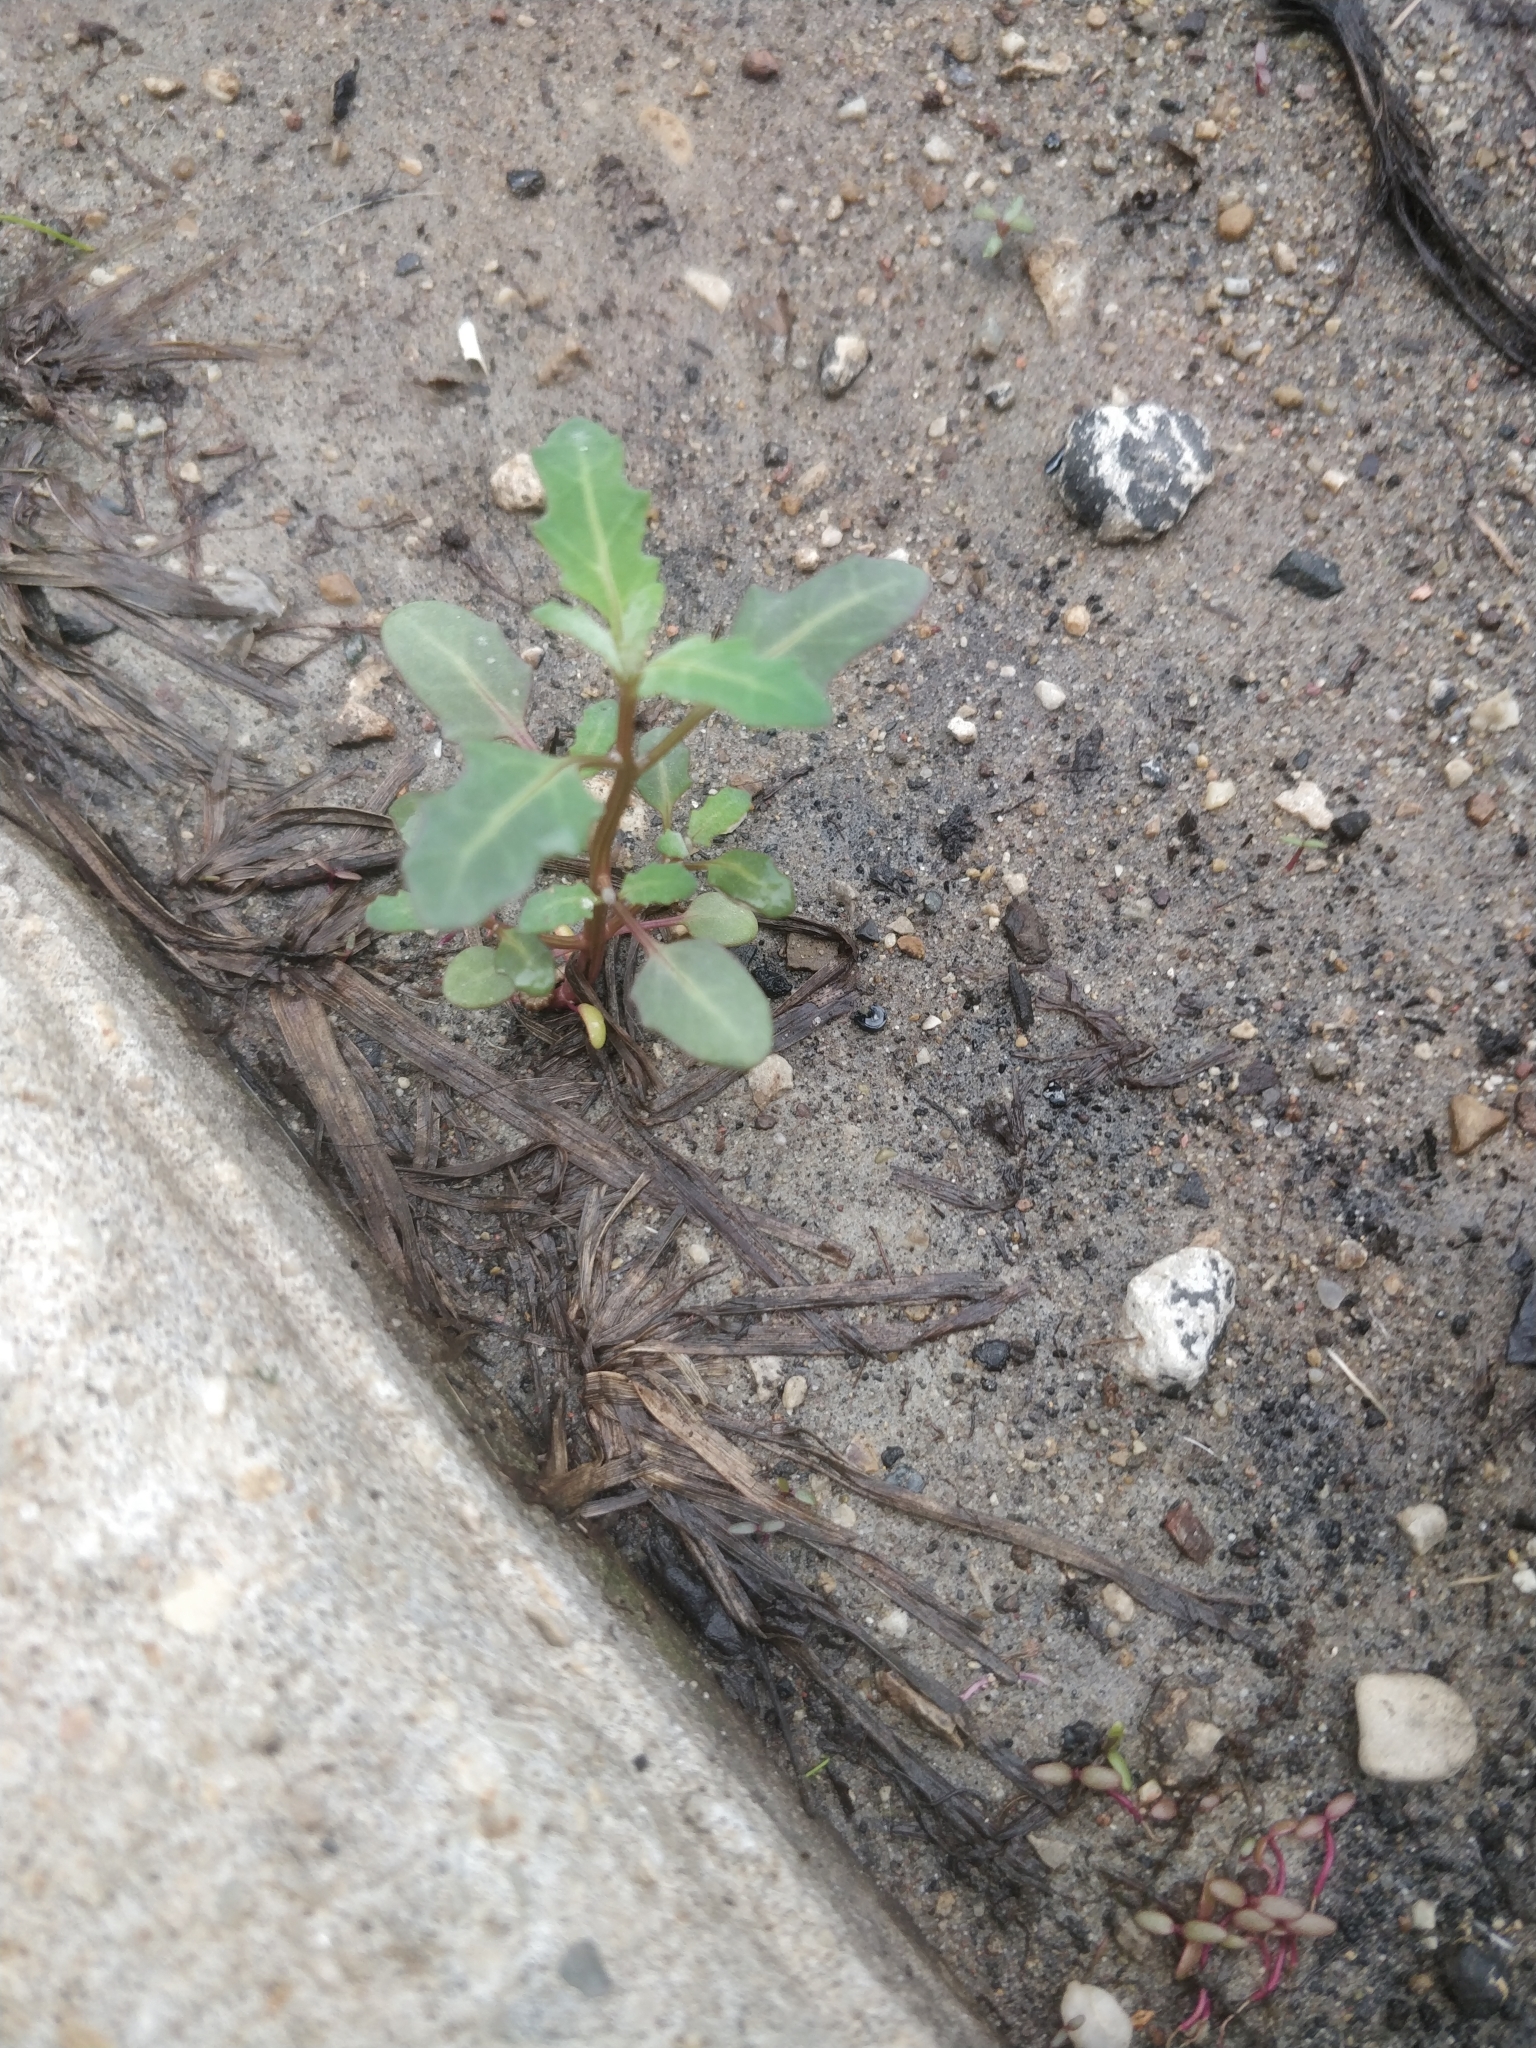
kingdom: Plantae
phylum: Tracheophyta
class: Magnoliopsida
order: Caryophyllales
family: Amaranthaceae
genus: Oxybasis
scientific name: Oxybasis glauca
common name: Glaucous goosefoot
